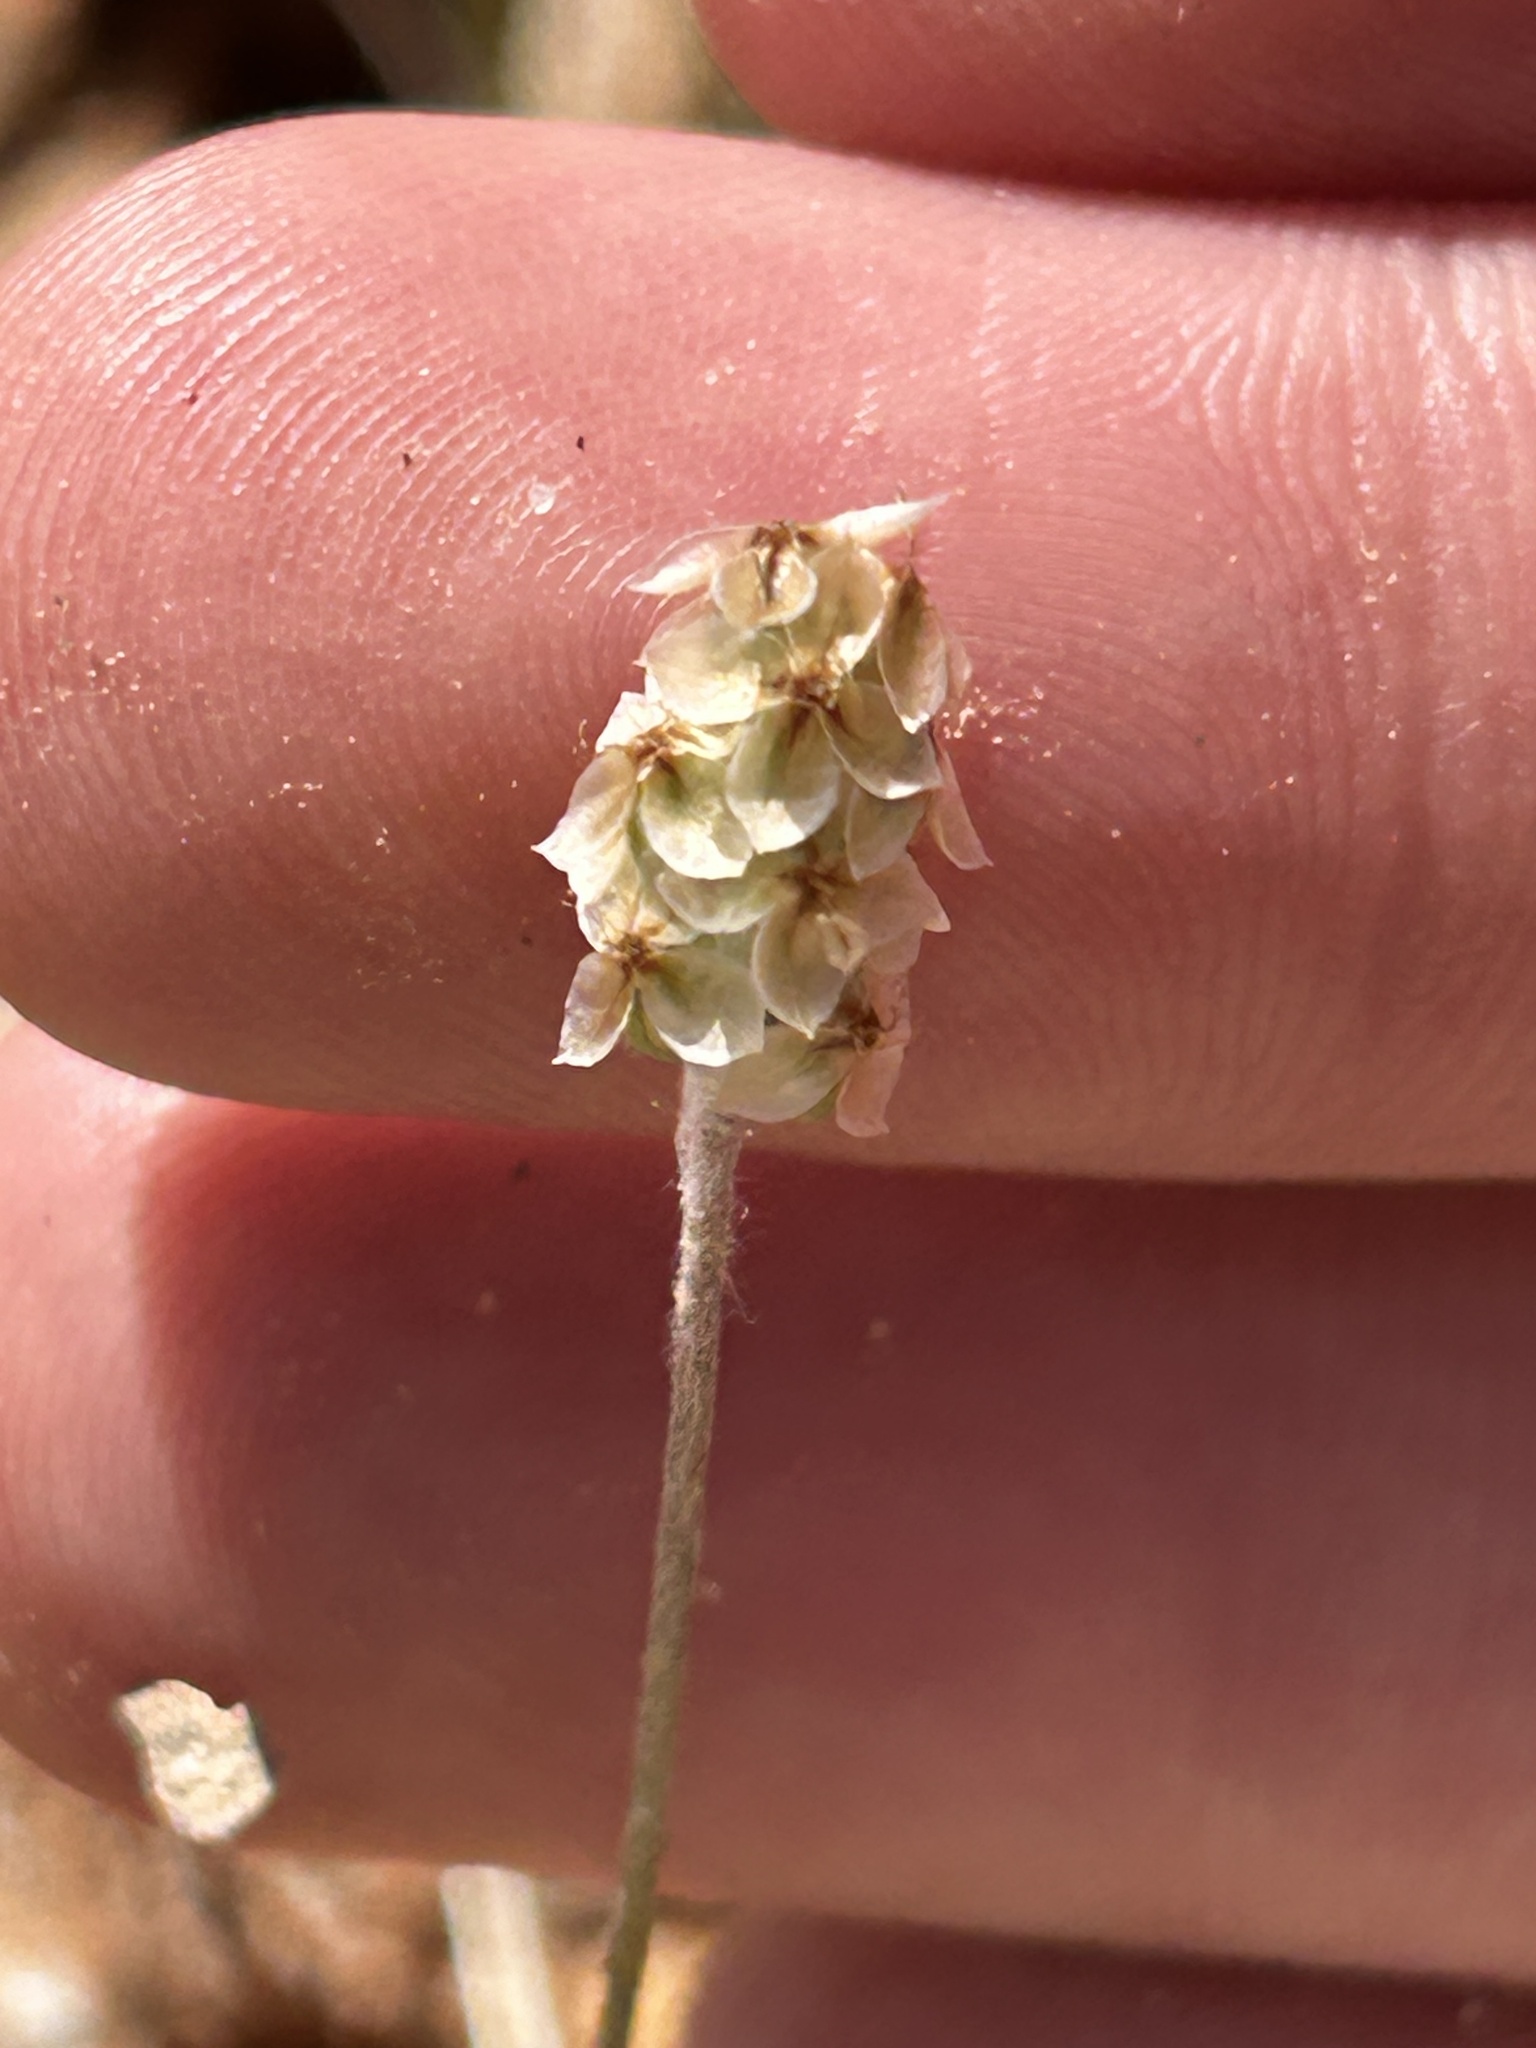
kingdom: Plantae
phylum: Tracheophyta
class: Magnoliopsida
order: Lamiales
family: Plantaginaceae
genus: Plantago
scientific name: Plantago ovata
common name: Blond plantain
